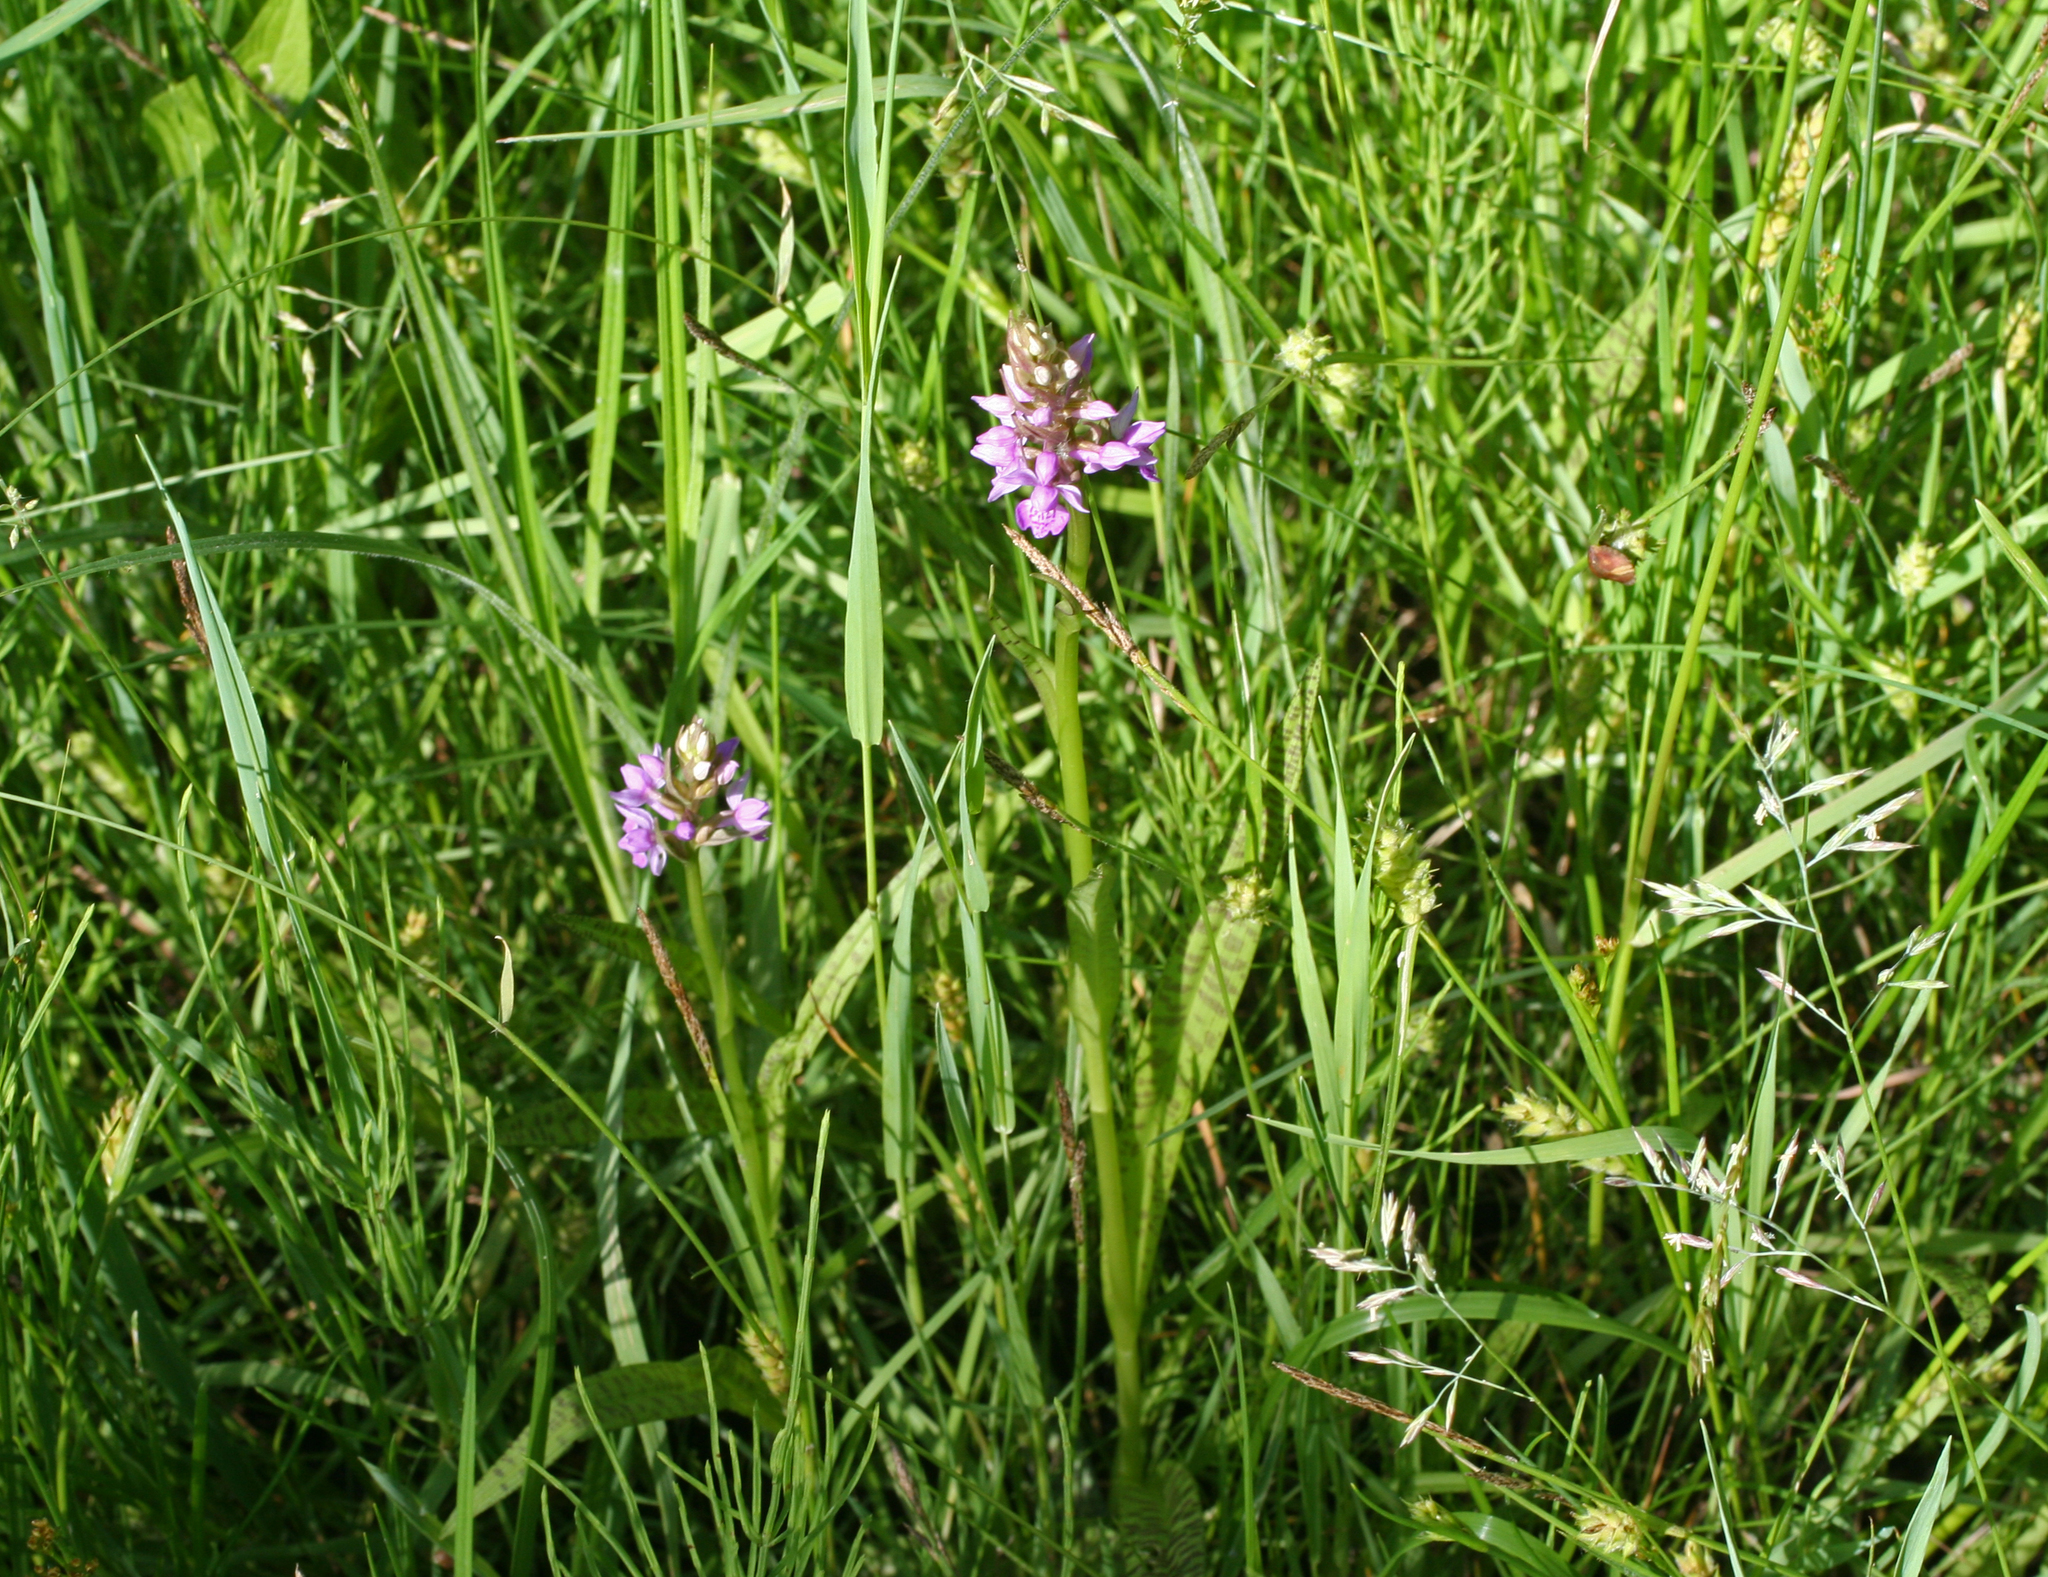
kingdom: Plantae
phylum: Tracheophyta
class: Liliopsida
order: Asparagales
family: Orchidaceae
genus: Dactylorhiza
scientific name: Dactylorhiza majalis
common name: Marsh orchid
